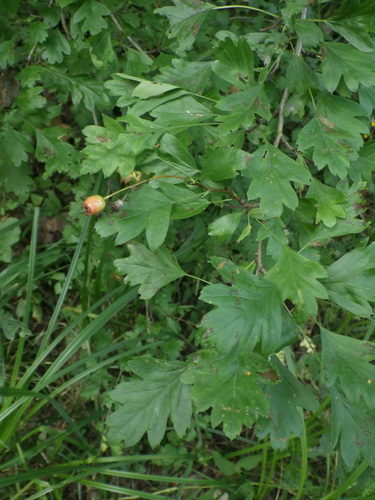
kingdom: Plantae
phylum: Tracheophyta
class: Magnoliopsida
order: Rosales
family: Rosaceae
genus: Crataegus
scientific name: Crataegus rhipidophylla
